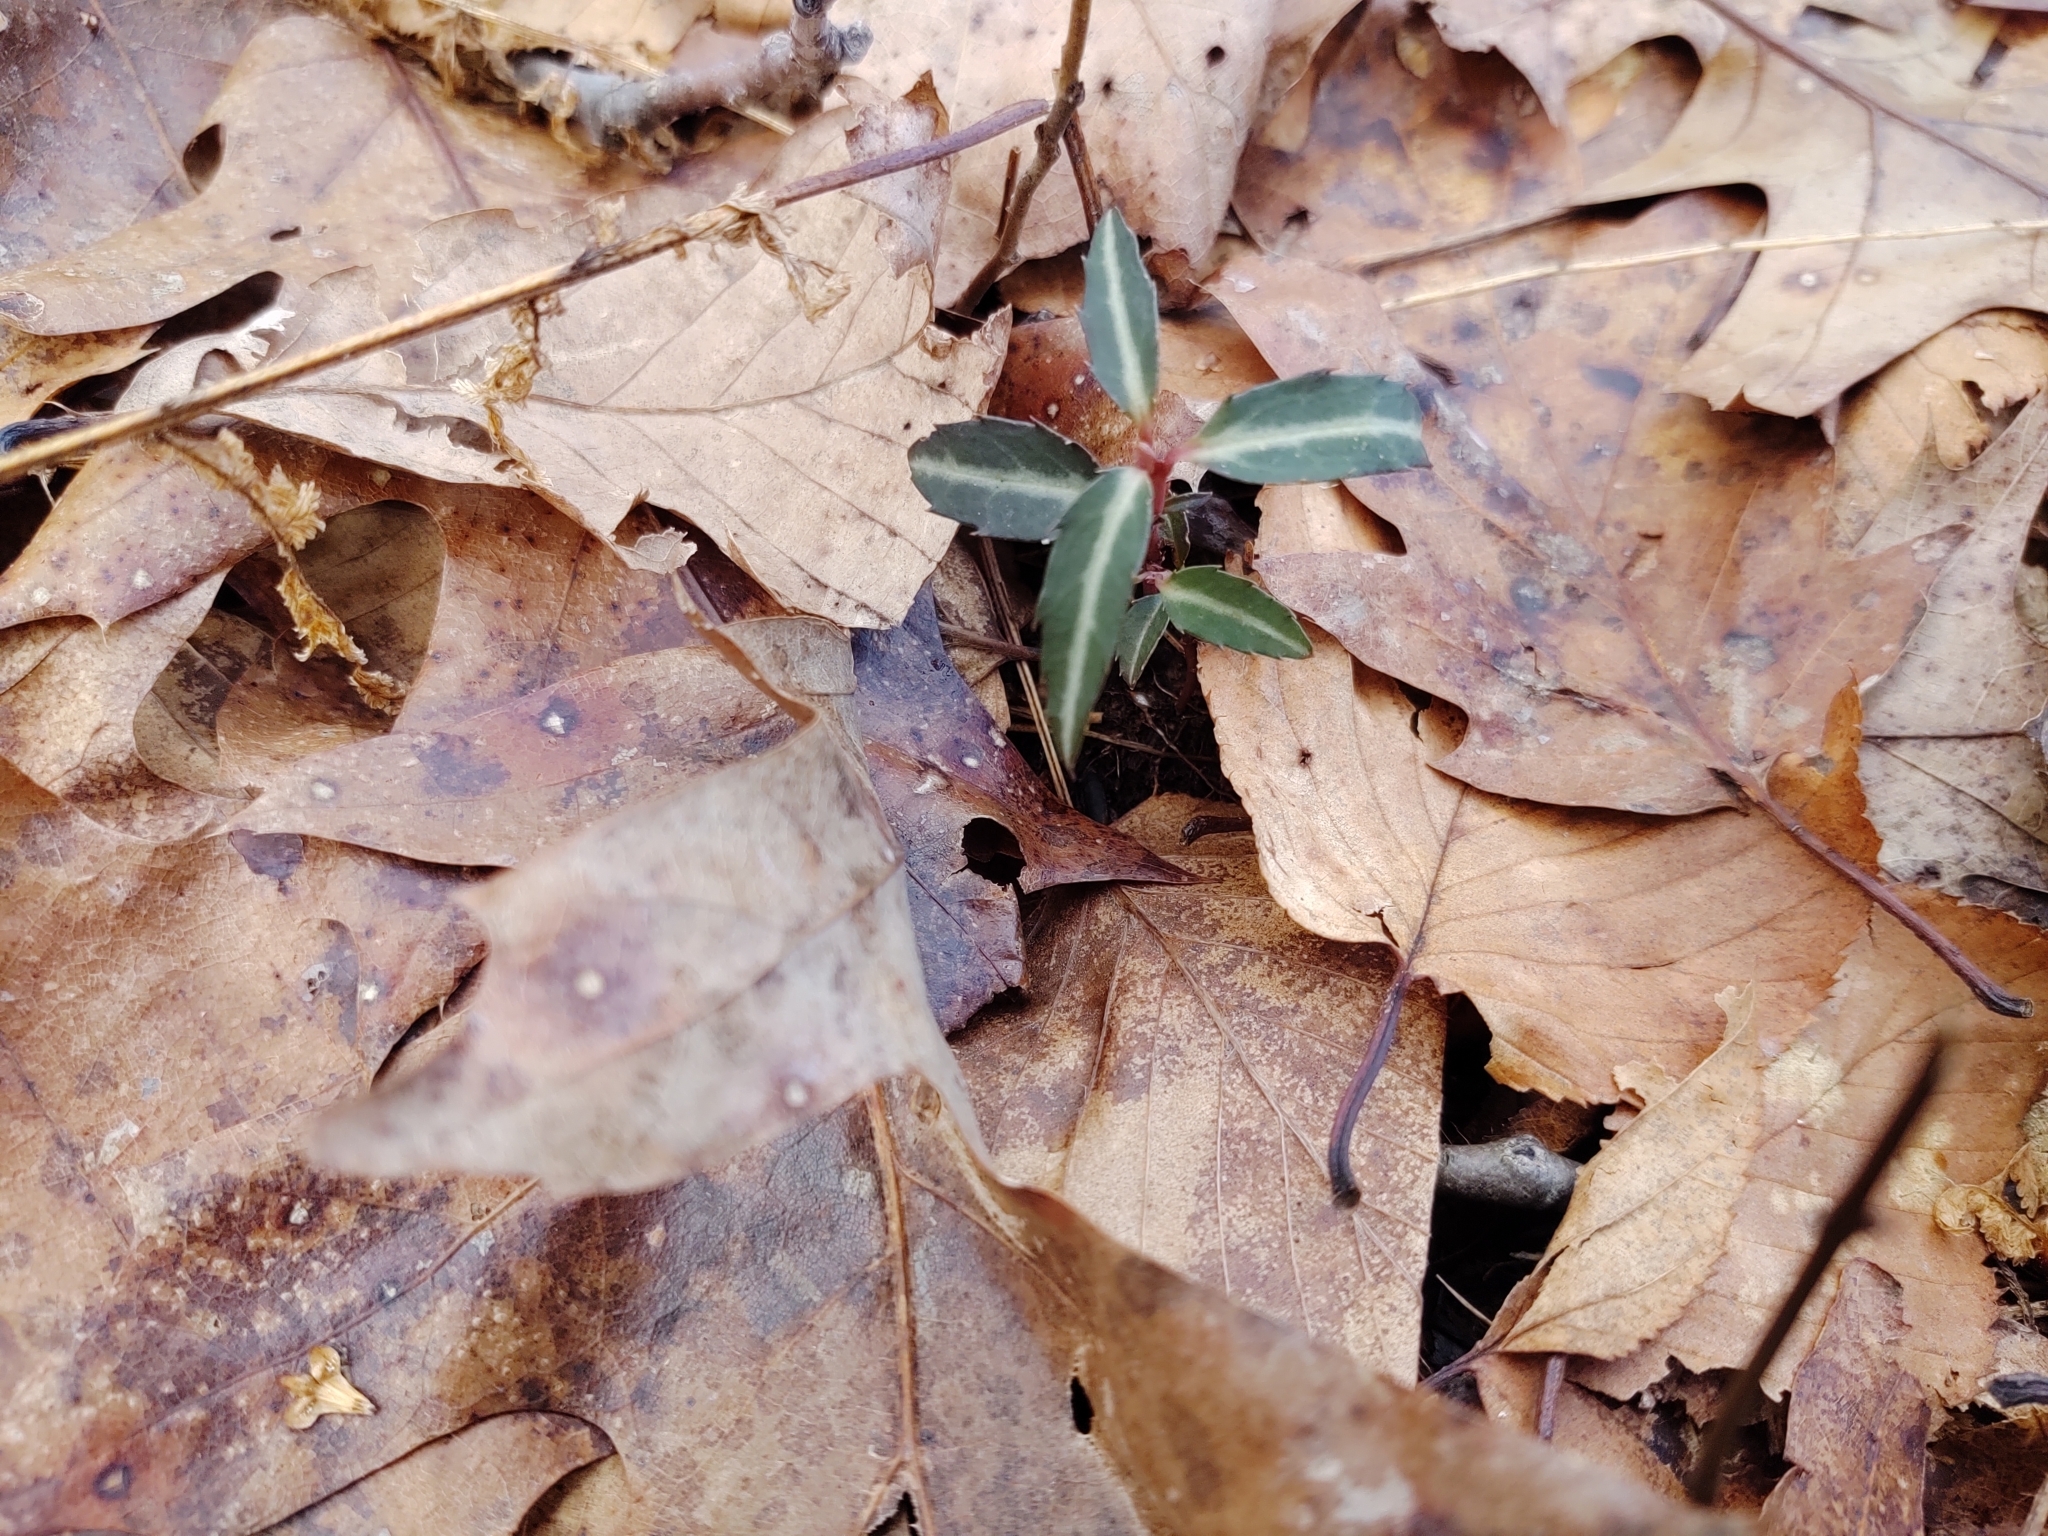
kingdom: Plantae
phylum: Tracheophyta
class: Magnoliopsida
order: Ericales
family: Ericaceae
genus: Chimaphila
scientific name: Chimaphila maculata
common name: Spotted pipsissewa
